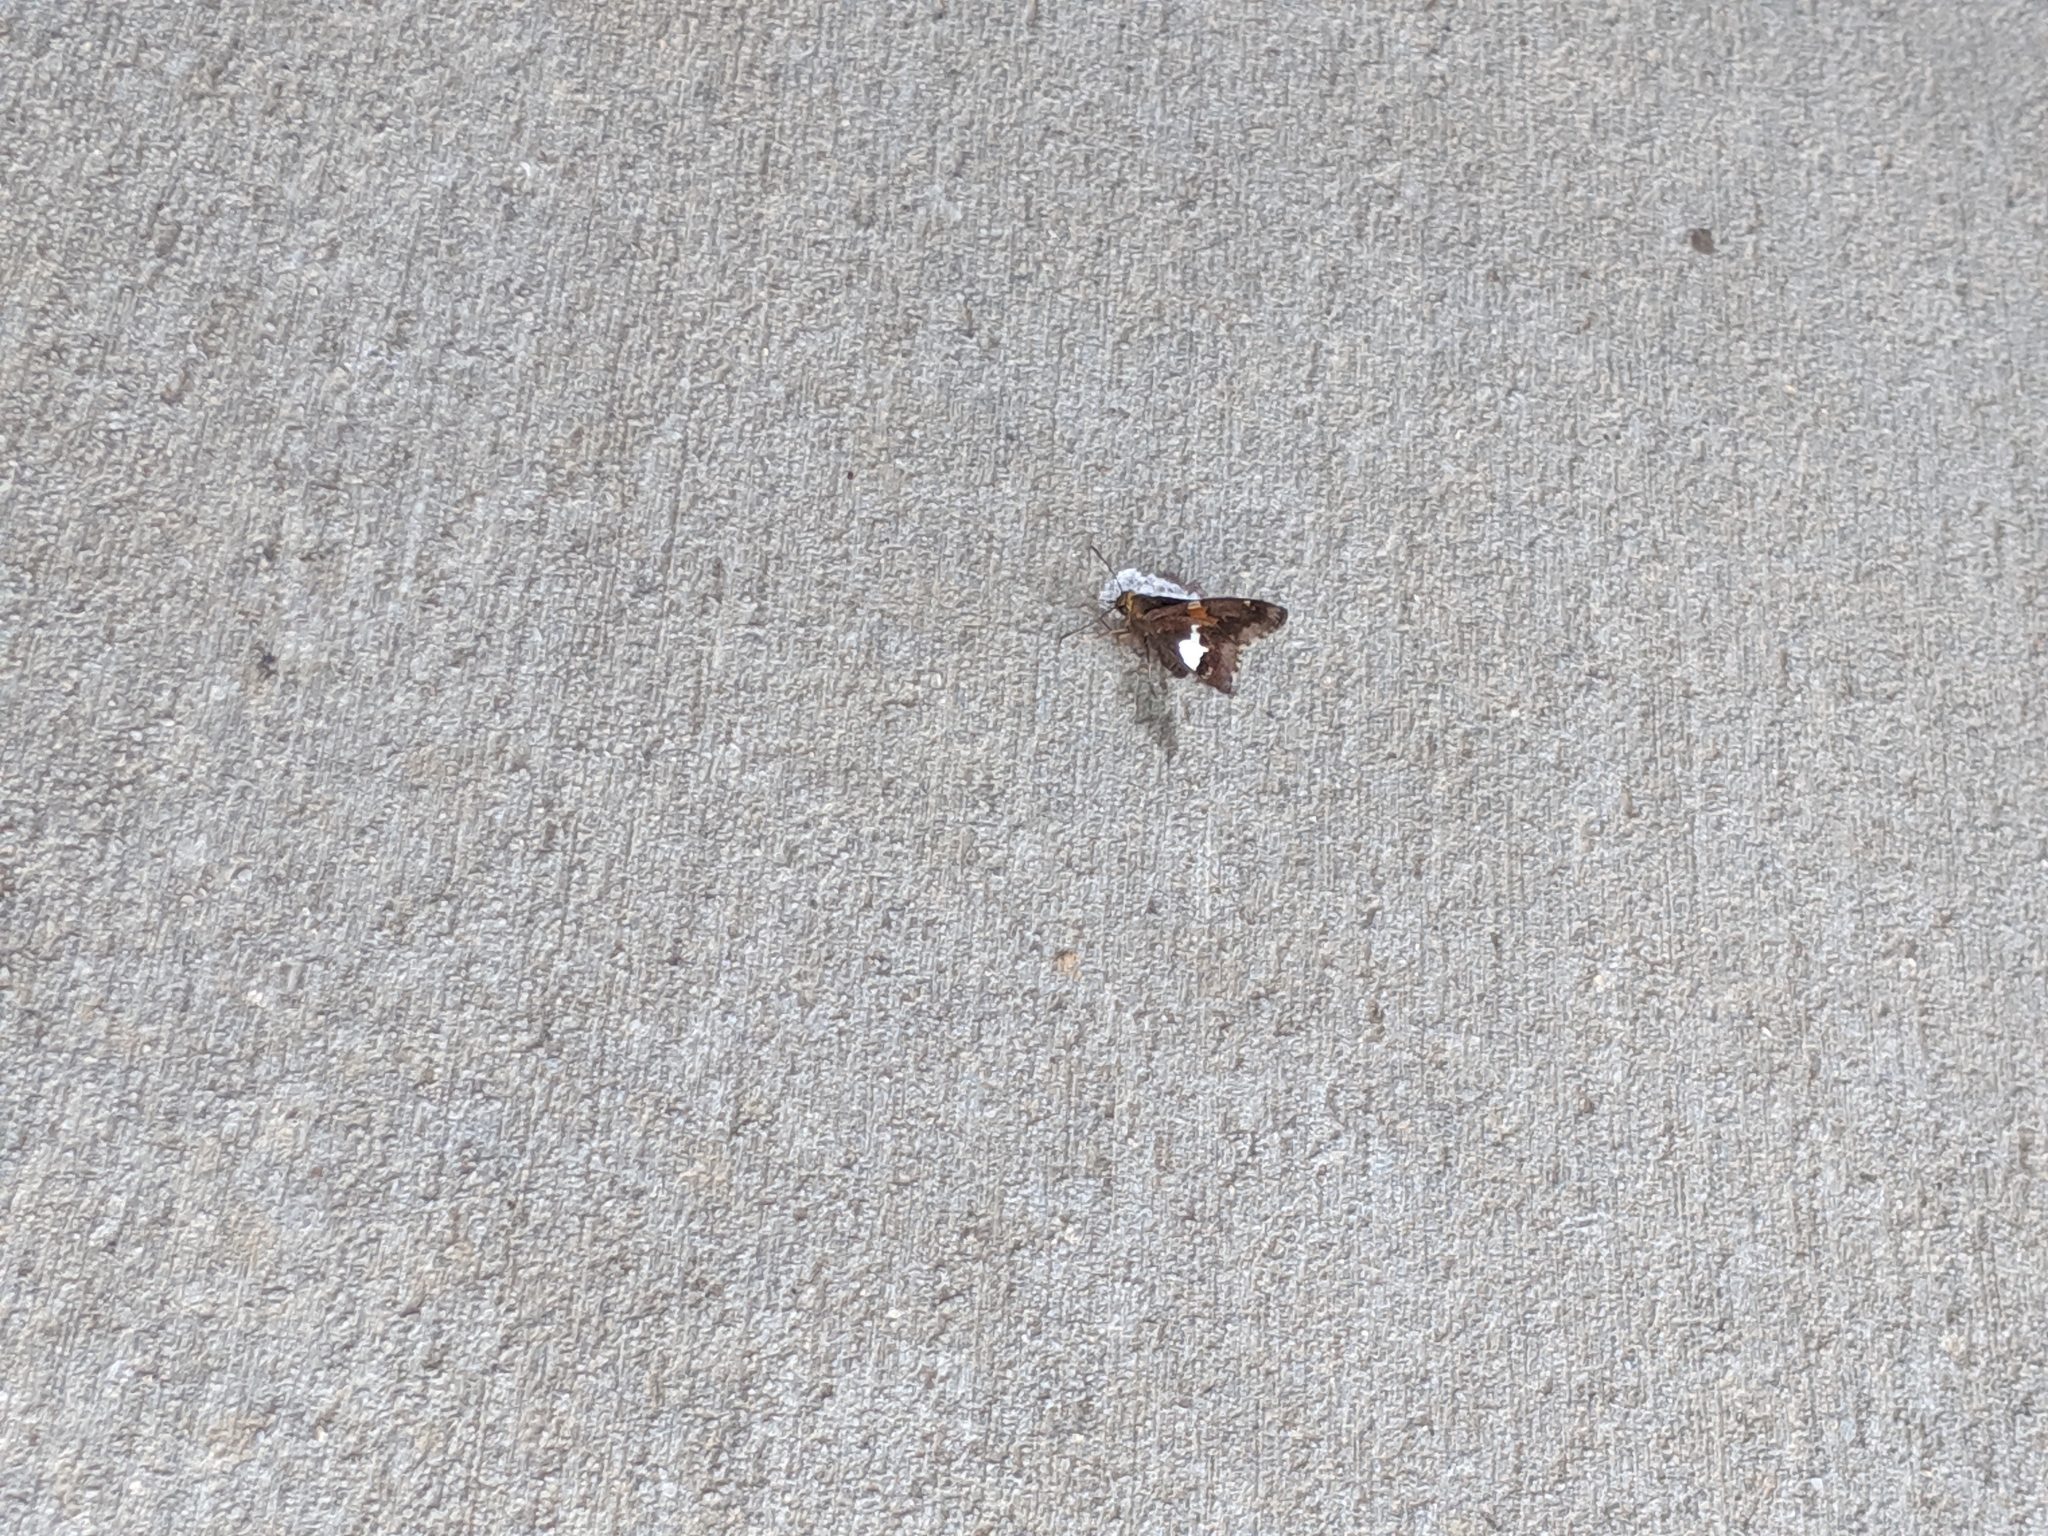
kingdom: Animalia
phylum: Arthropoda
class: Insecta
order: Lepidoptera
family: Hesperiidae
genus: Epargyreus
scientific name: Epargyreus clarus
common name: Silver-spotted skipper
